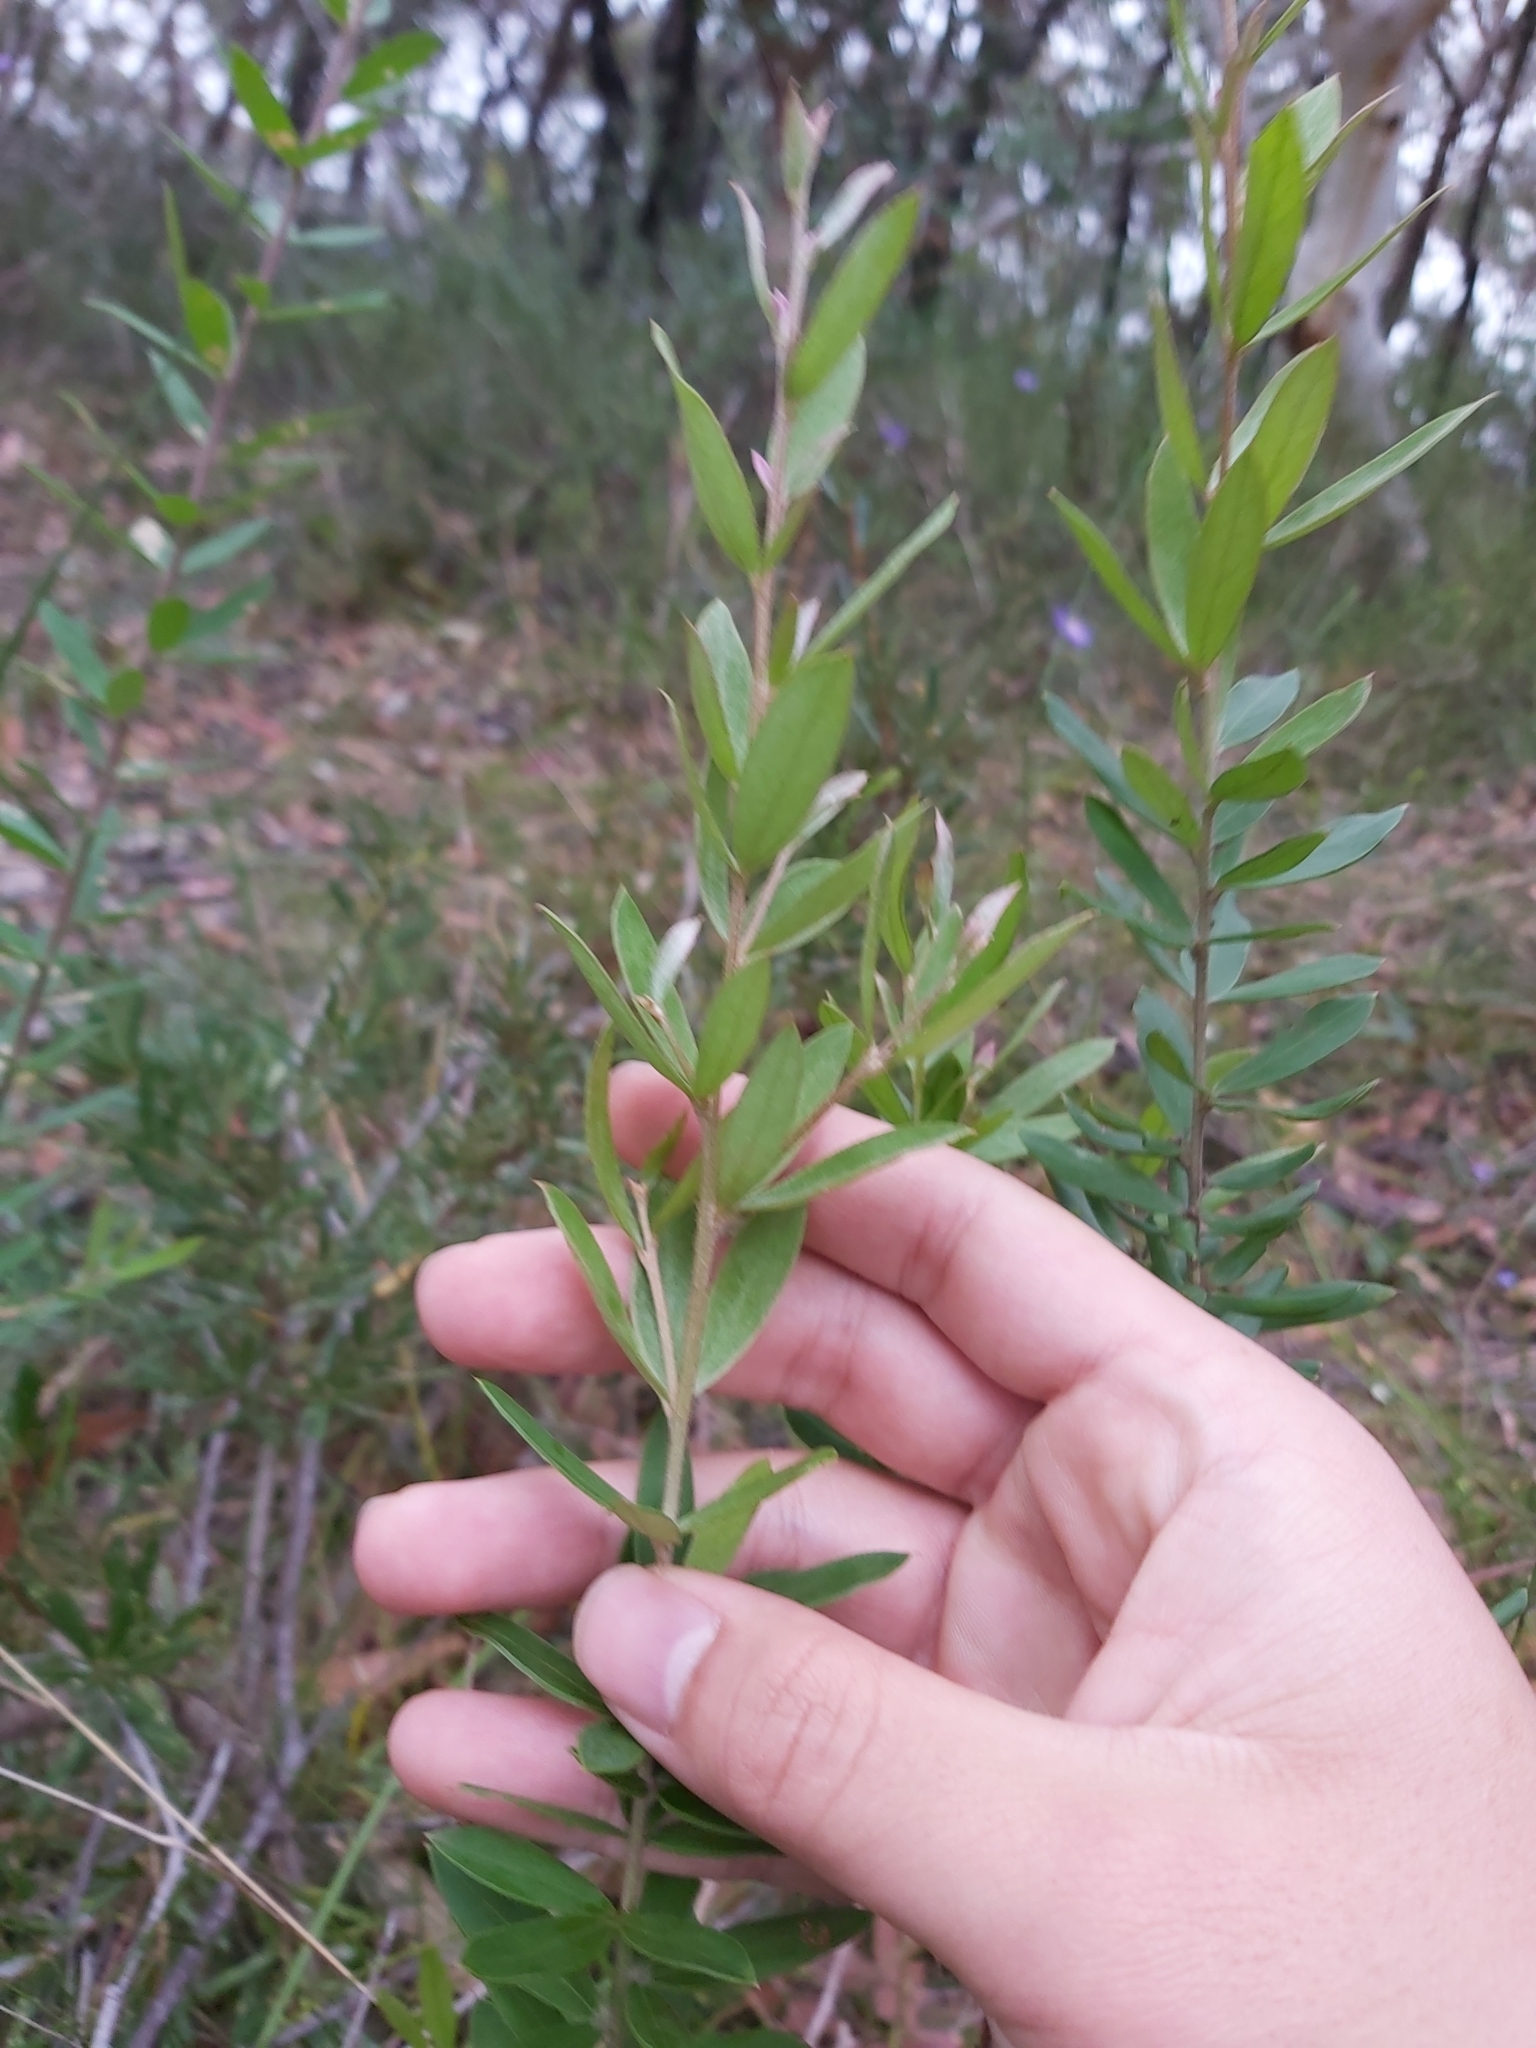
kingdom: Plantae
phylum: Tracheophyta
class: Magnoliopsida
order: Proteales
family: Proteaceae
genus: Grevillea
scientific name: Grevillea speciosa
